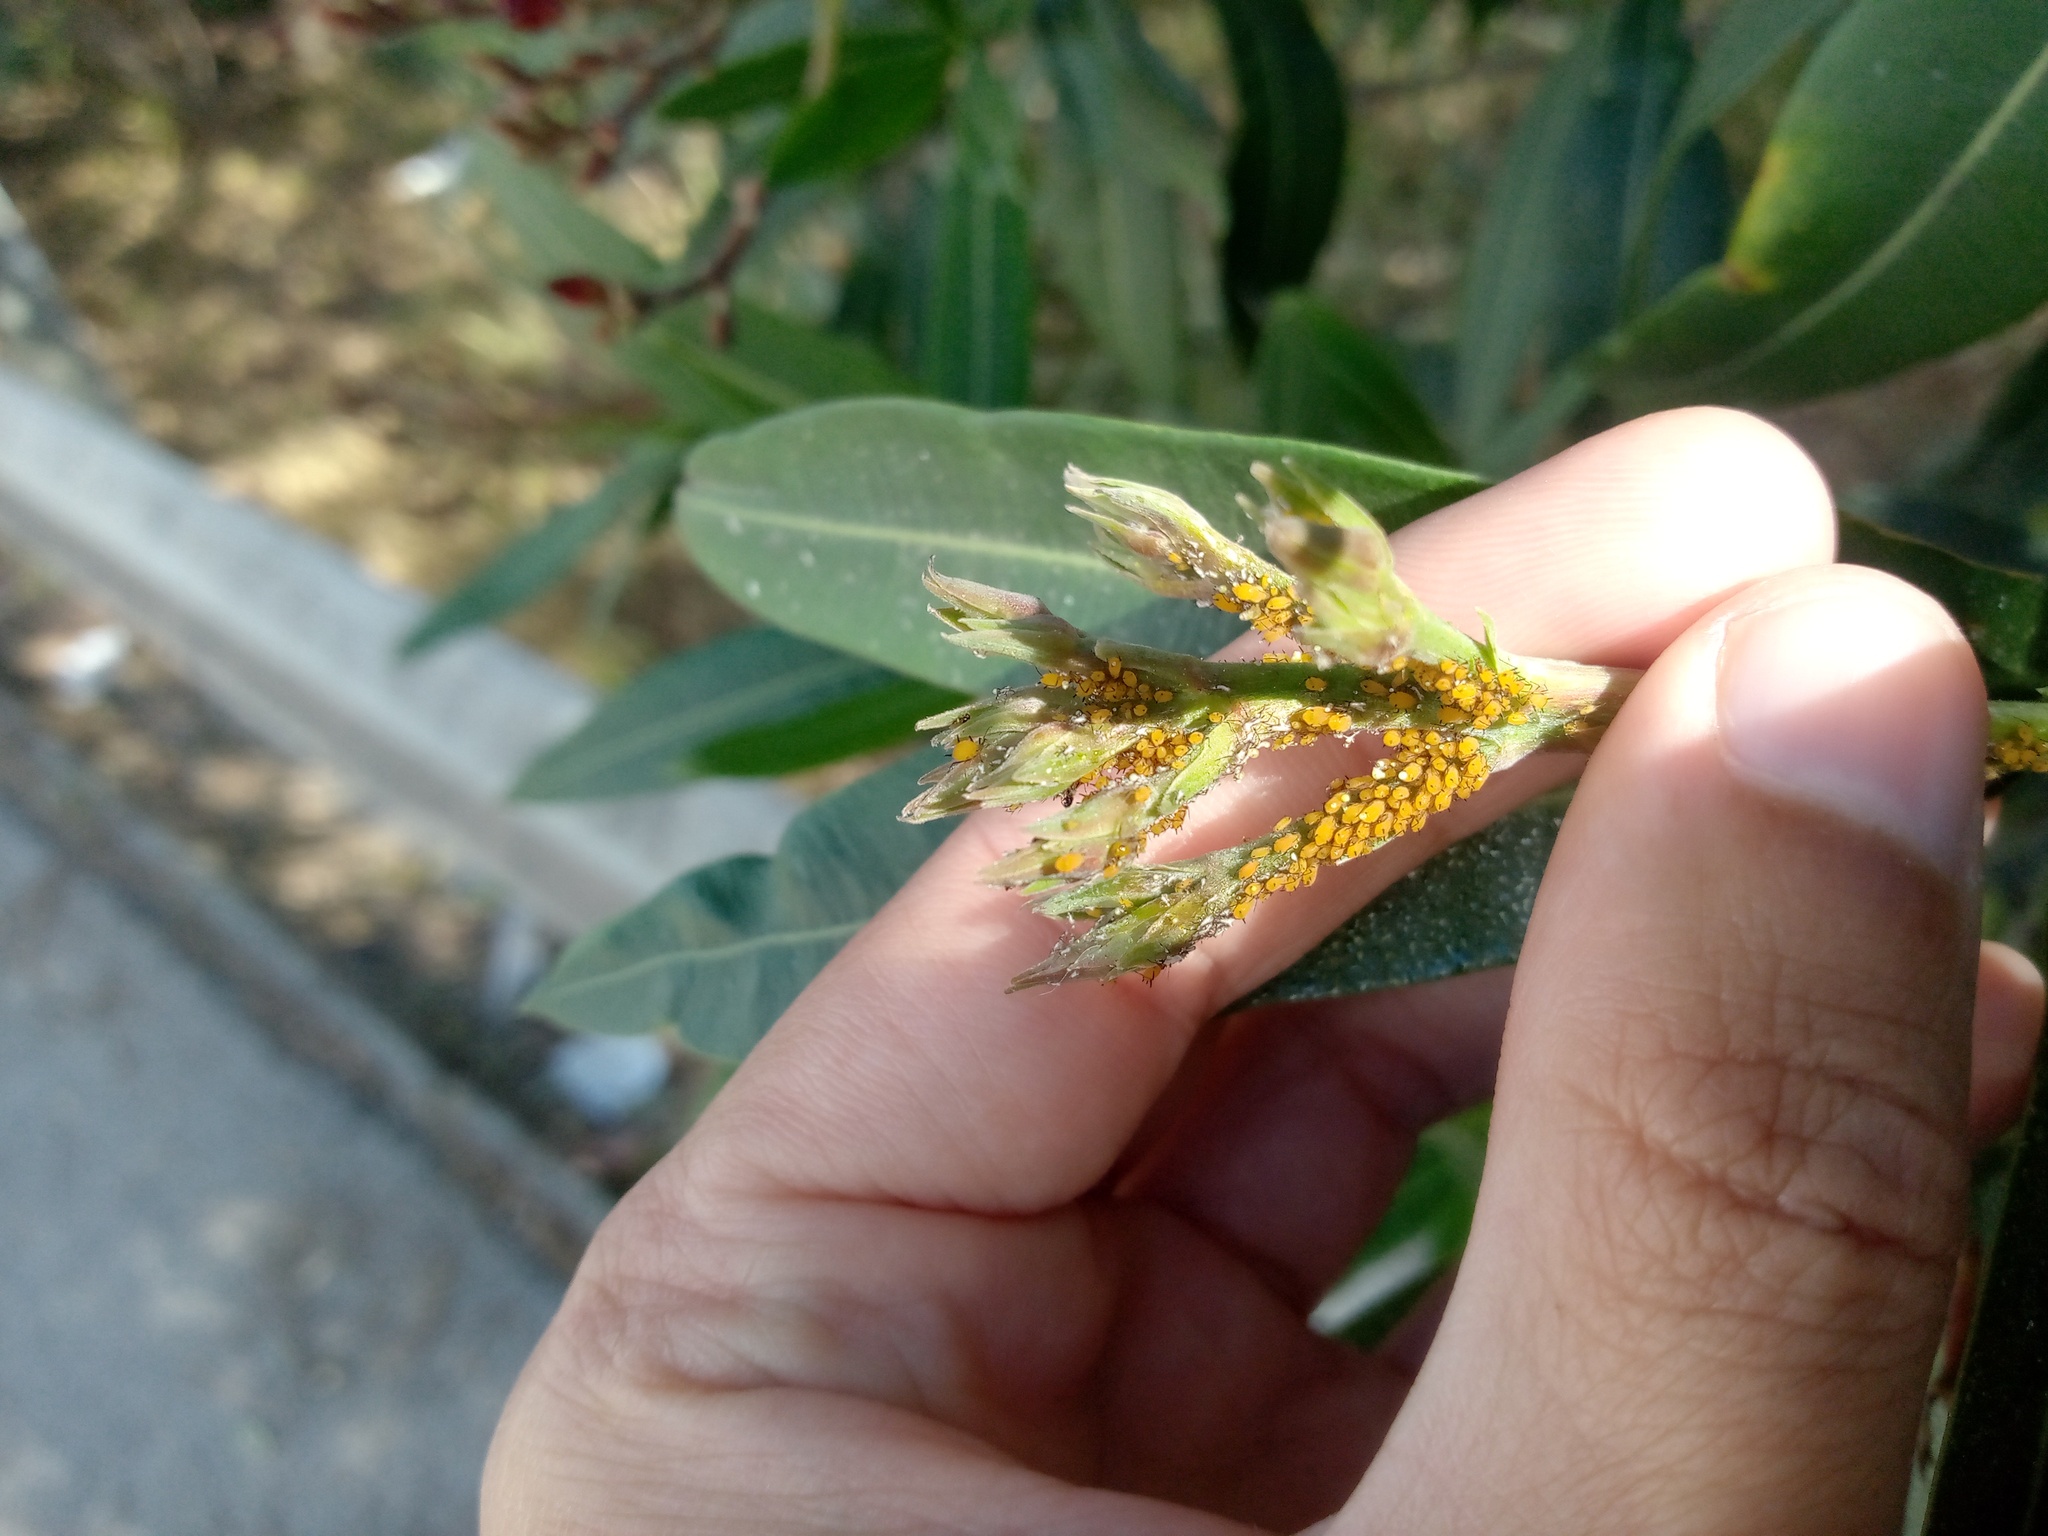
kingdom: Animalia
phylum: Arthropoda
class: Insecta
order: Hemiptera
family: Aphididae
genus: Aphis
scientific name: Aphis nerii
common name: Oleander aphid
